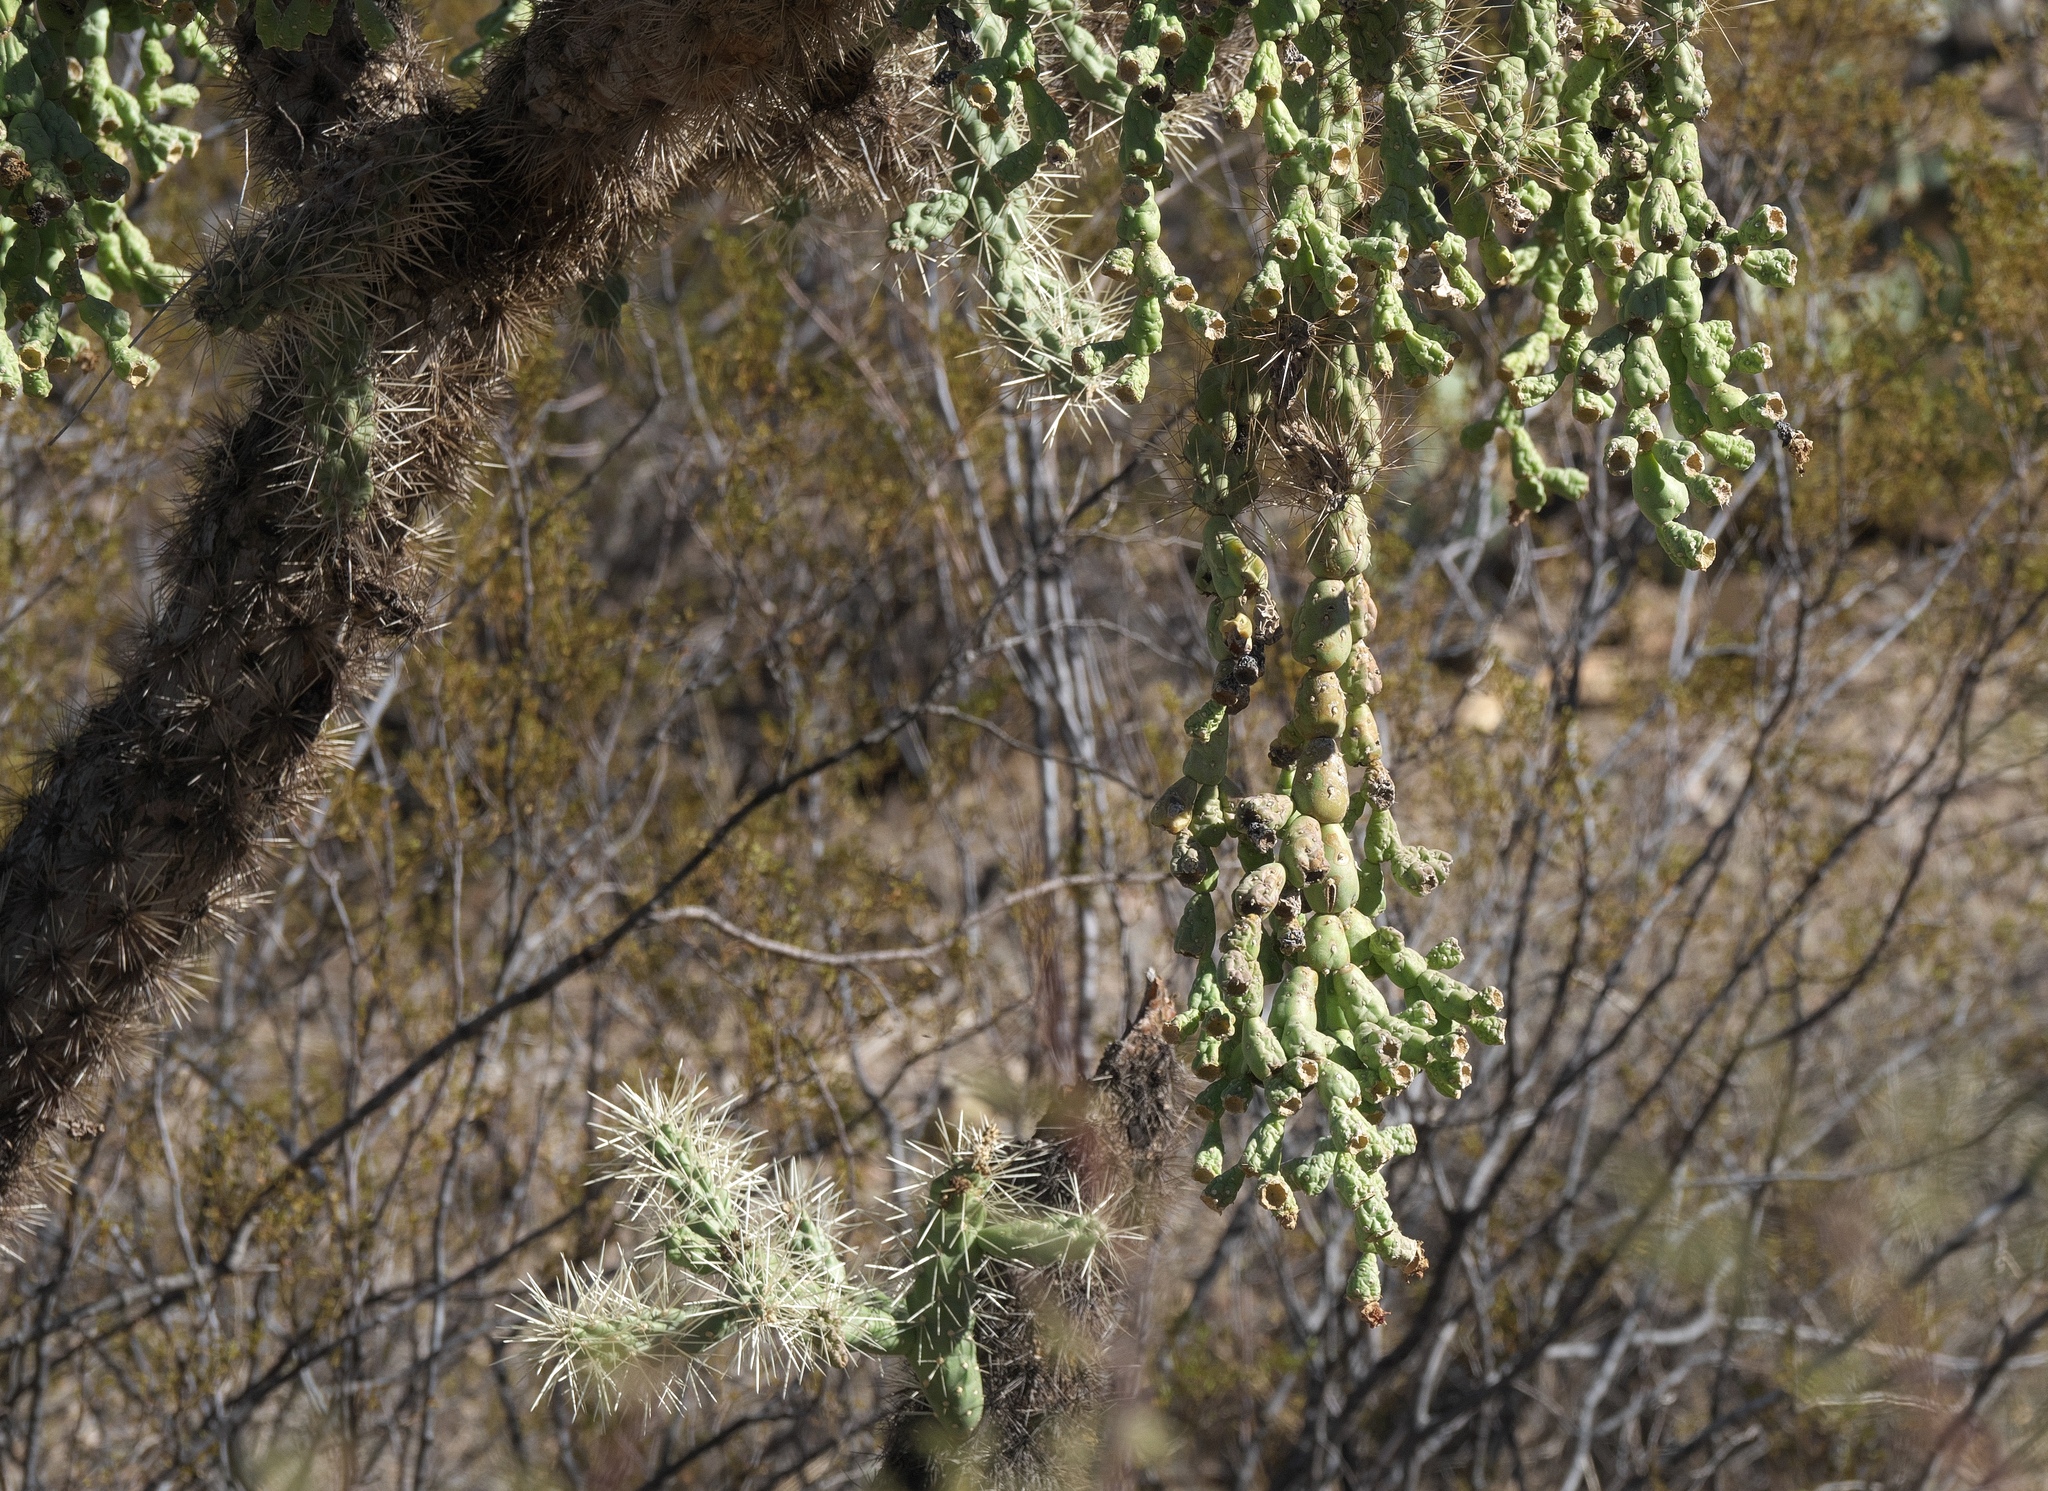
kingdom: Plantae
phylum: Tracheophyta
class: Magnoliopsida
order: Caryophyllales
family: Cactaceae
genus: Cylindropuntia
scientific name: Cylindropuntia fulgida
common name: Jumping cholla
